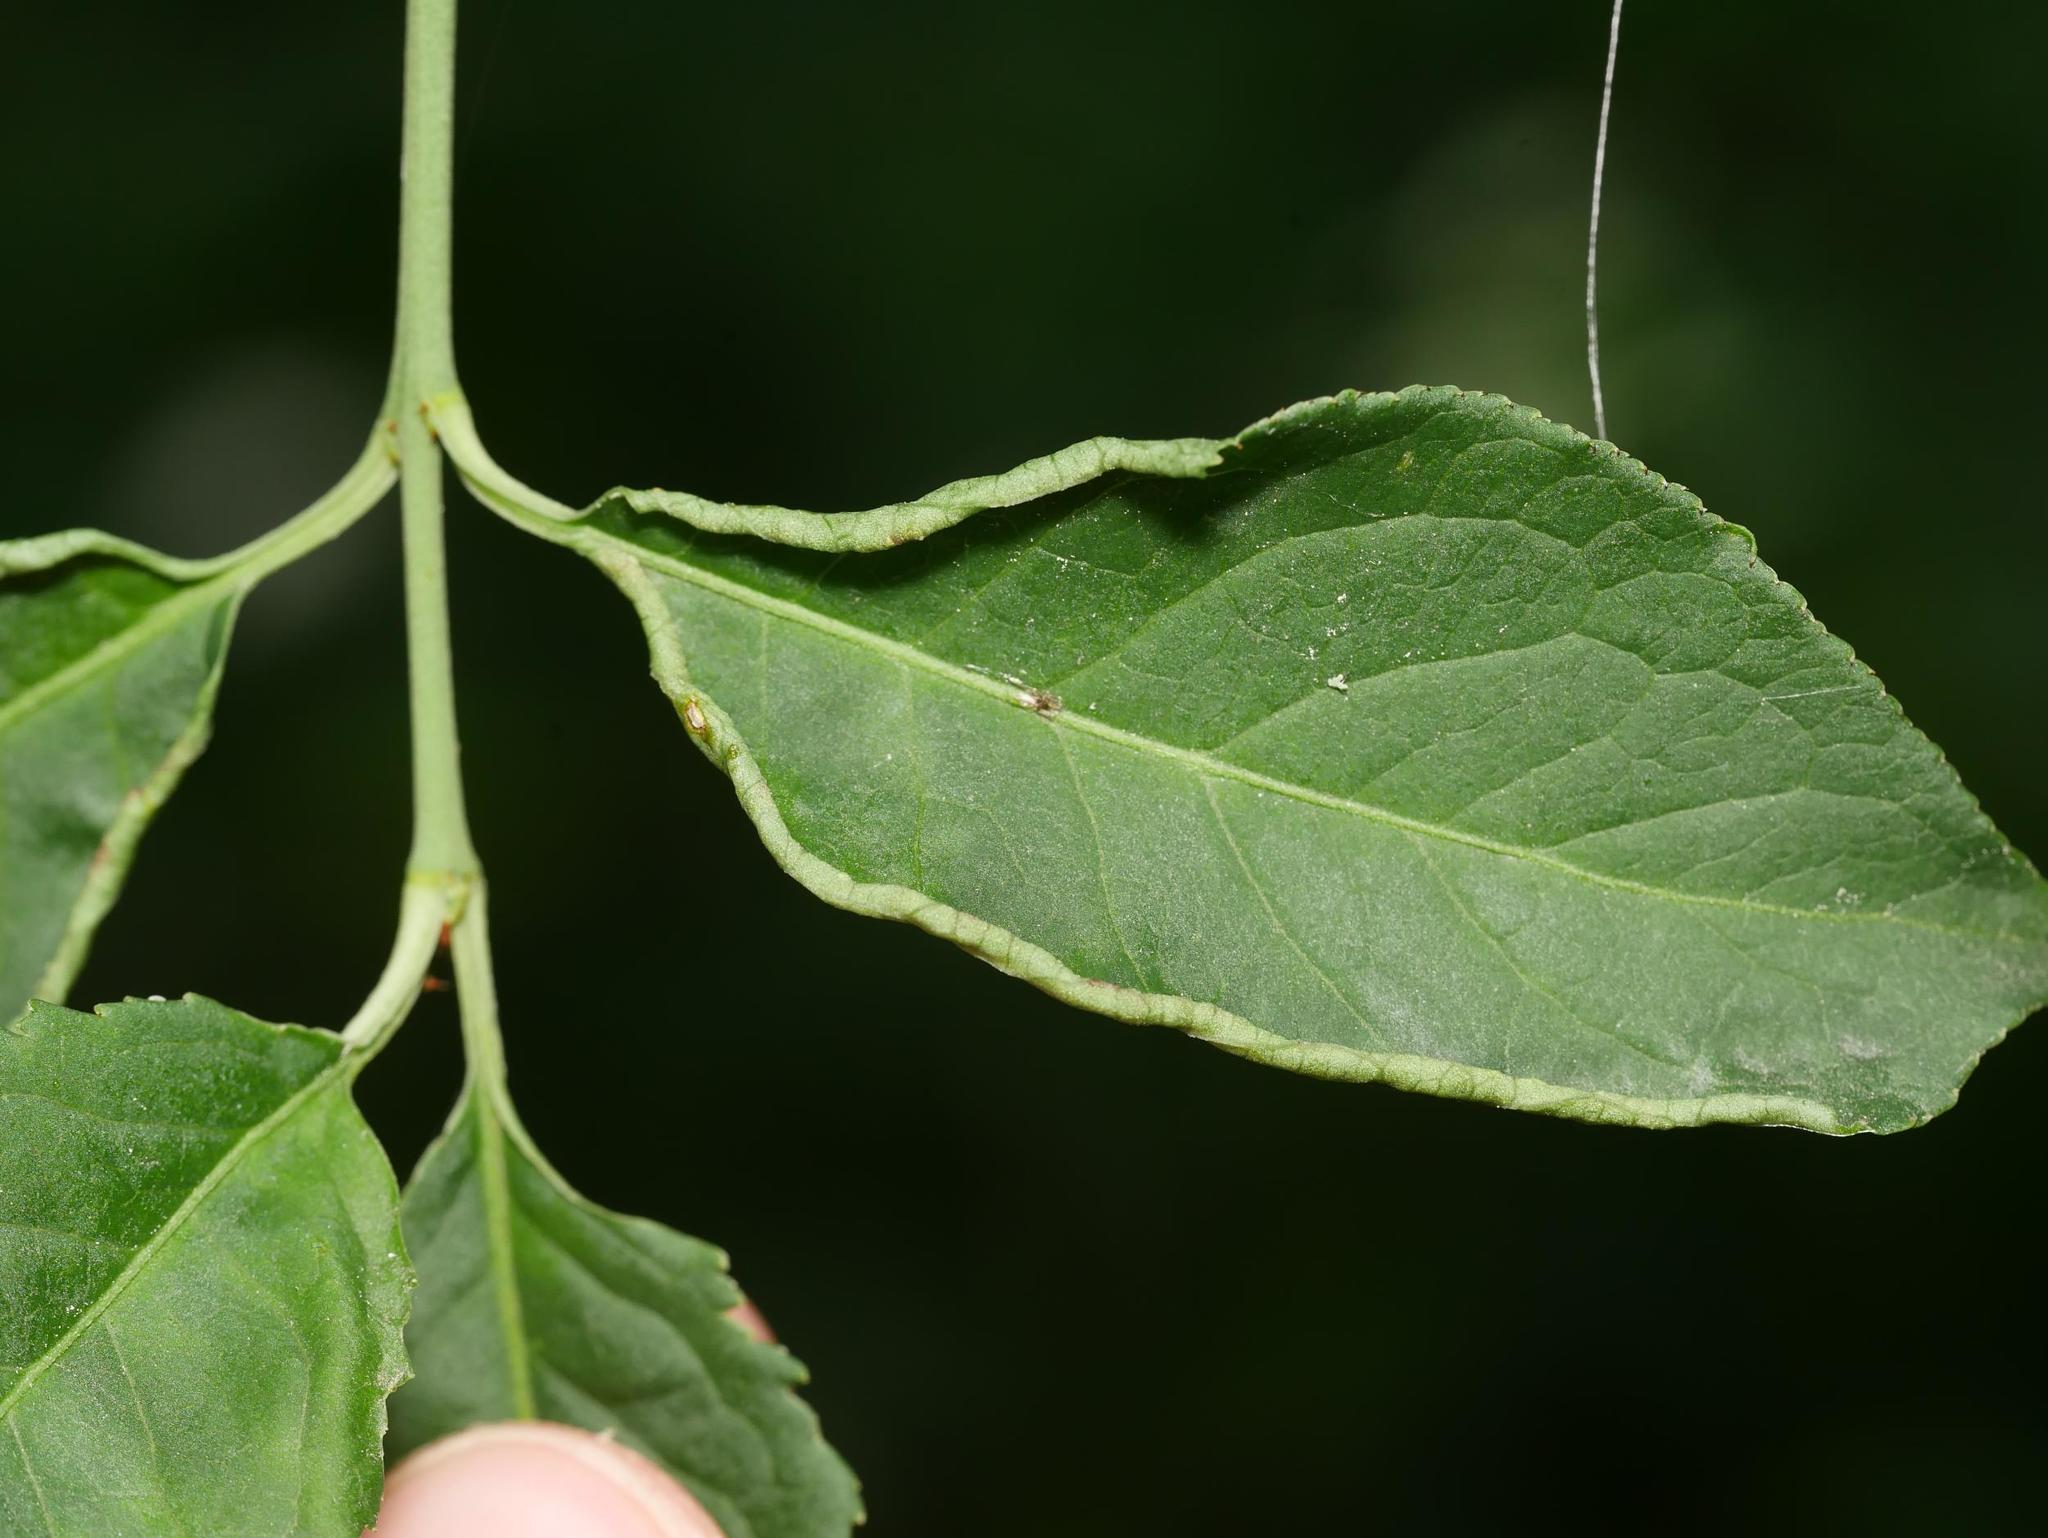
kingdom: Animalia
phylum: Arthropoda
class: Arachnida
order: Trombidiformes
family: Eriophyidae
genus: Stenacis
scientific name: Stenacis evonymi
